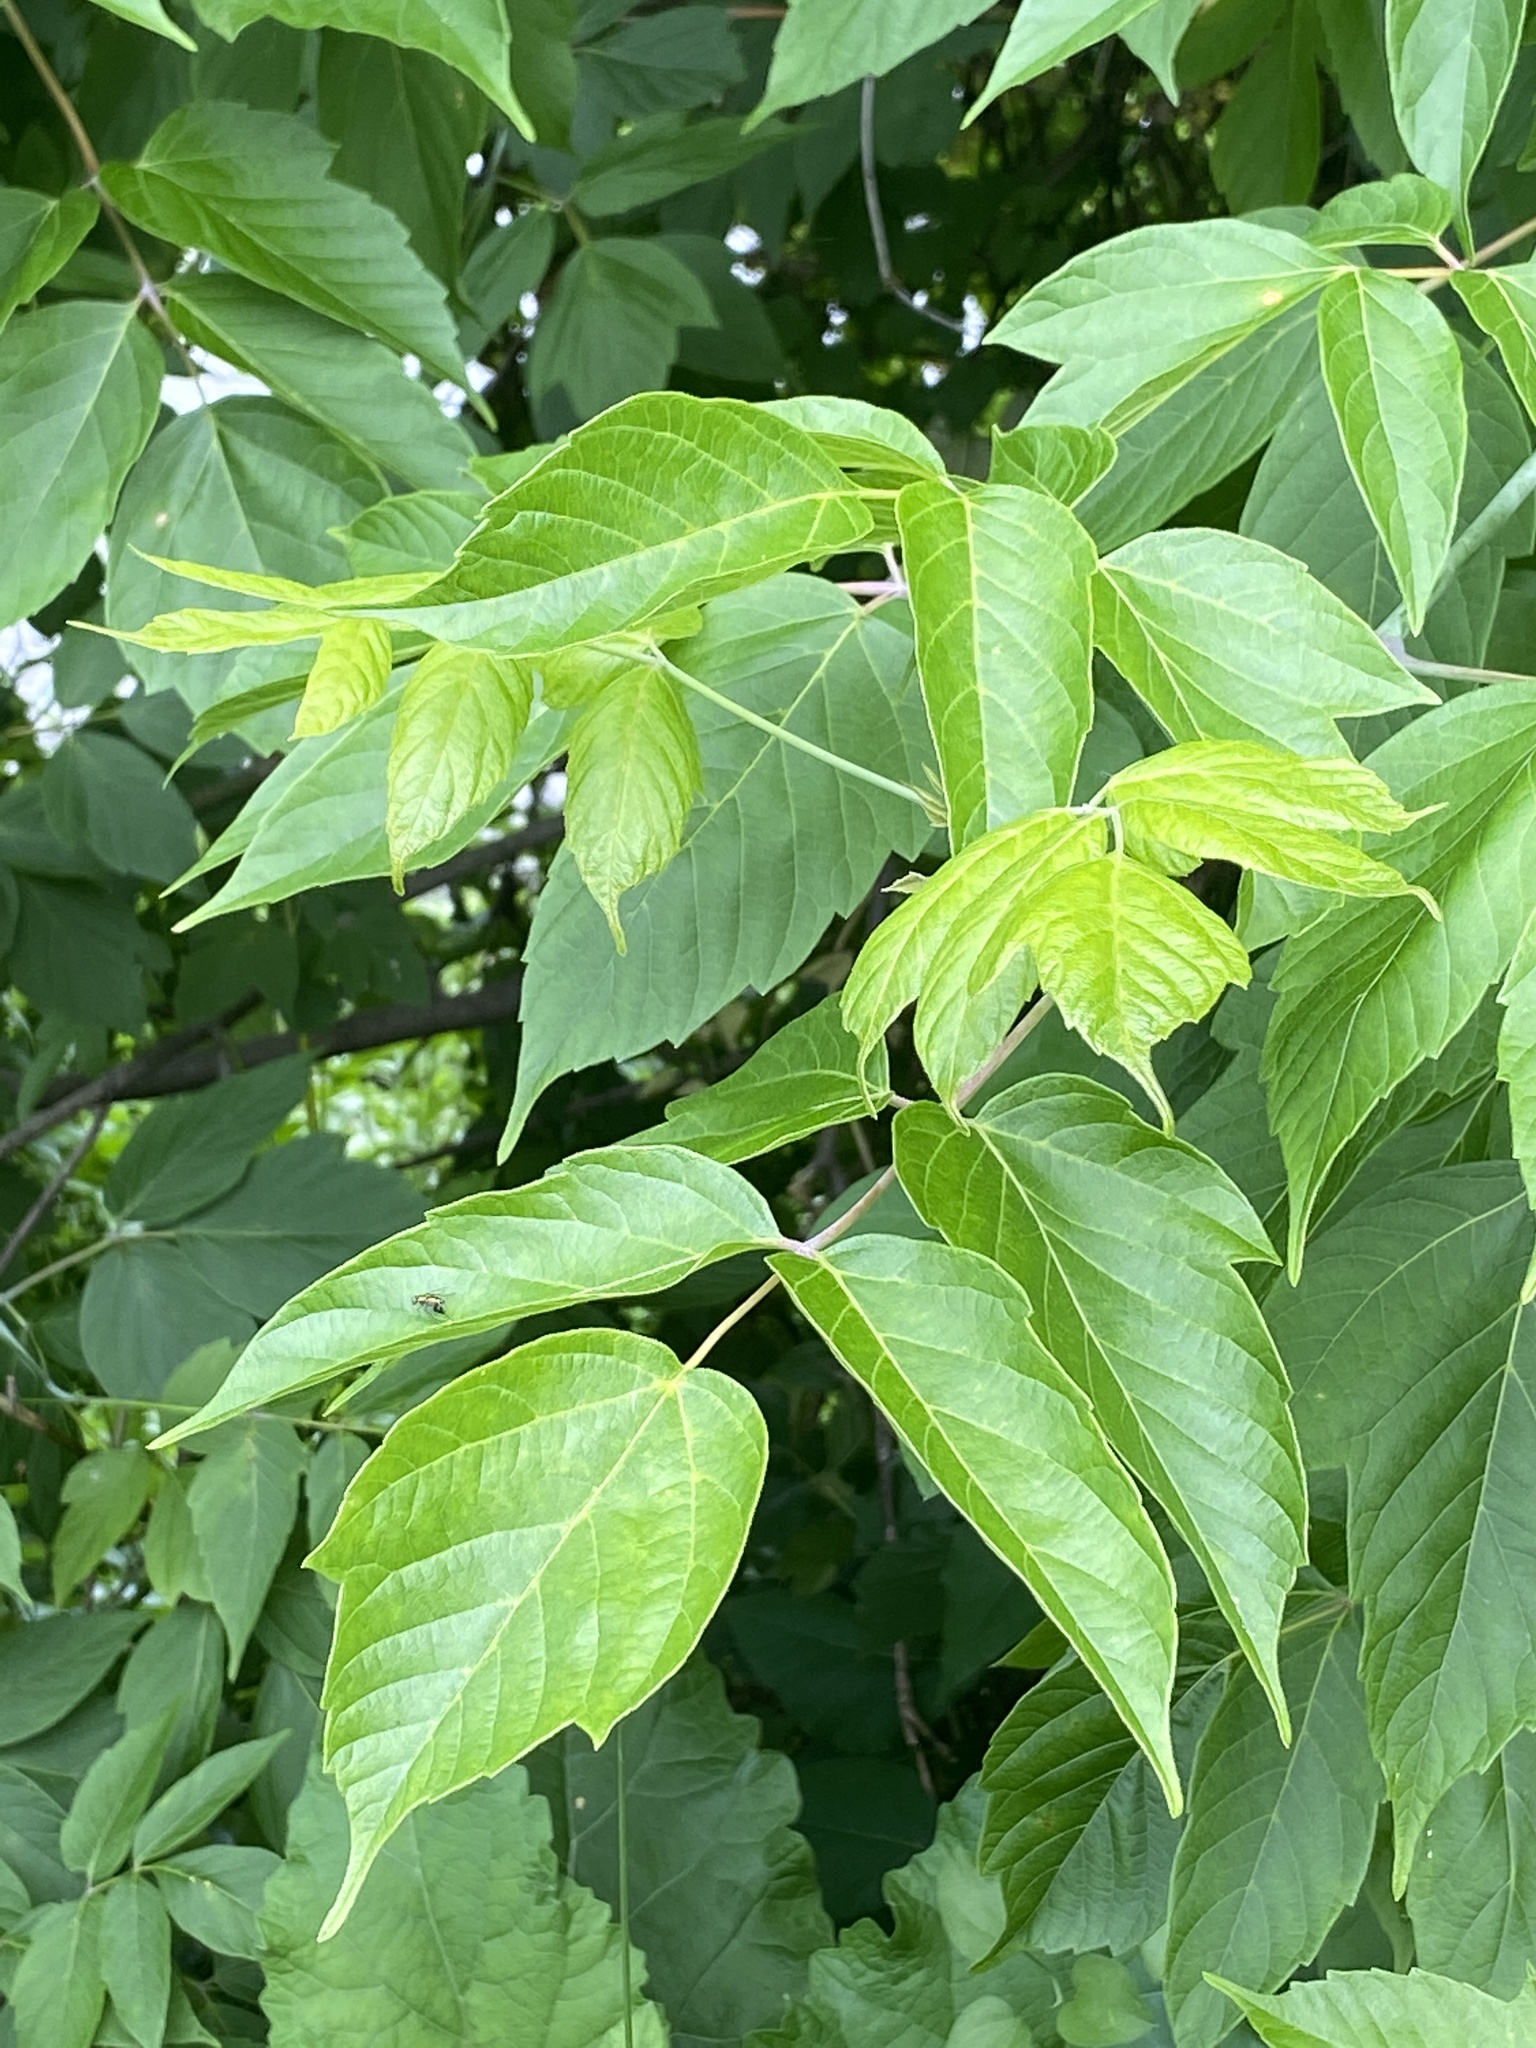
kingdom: Plantae
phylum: Tracheophyta
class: Magnoliopsida
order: Sapindales
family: Sapindaceae
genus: Acer
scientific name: Acer negundo
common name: Ashleaf maple
